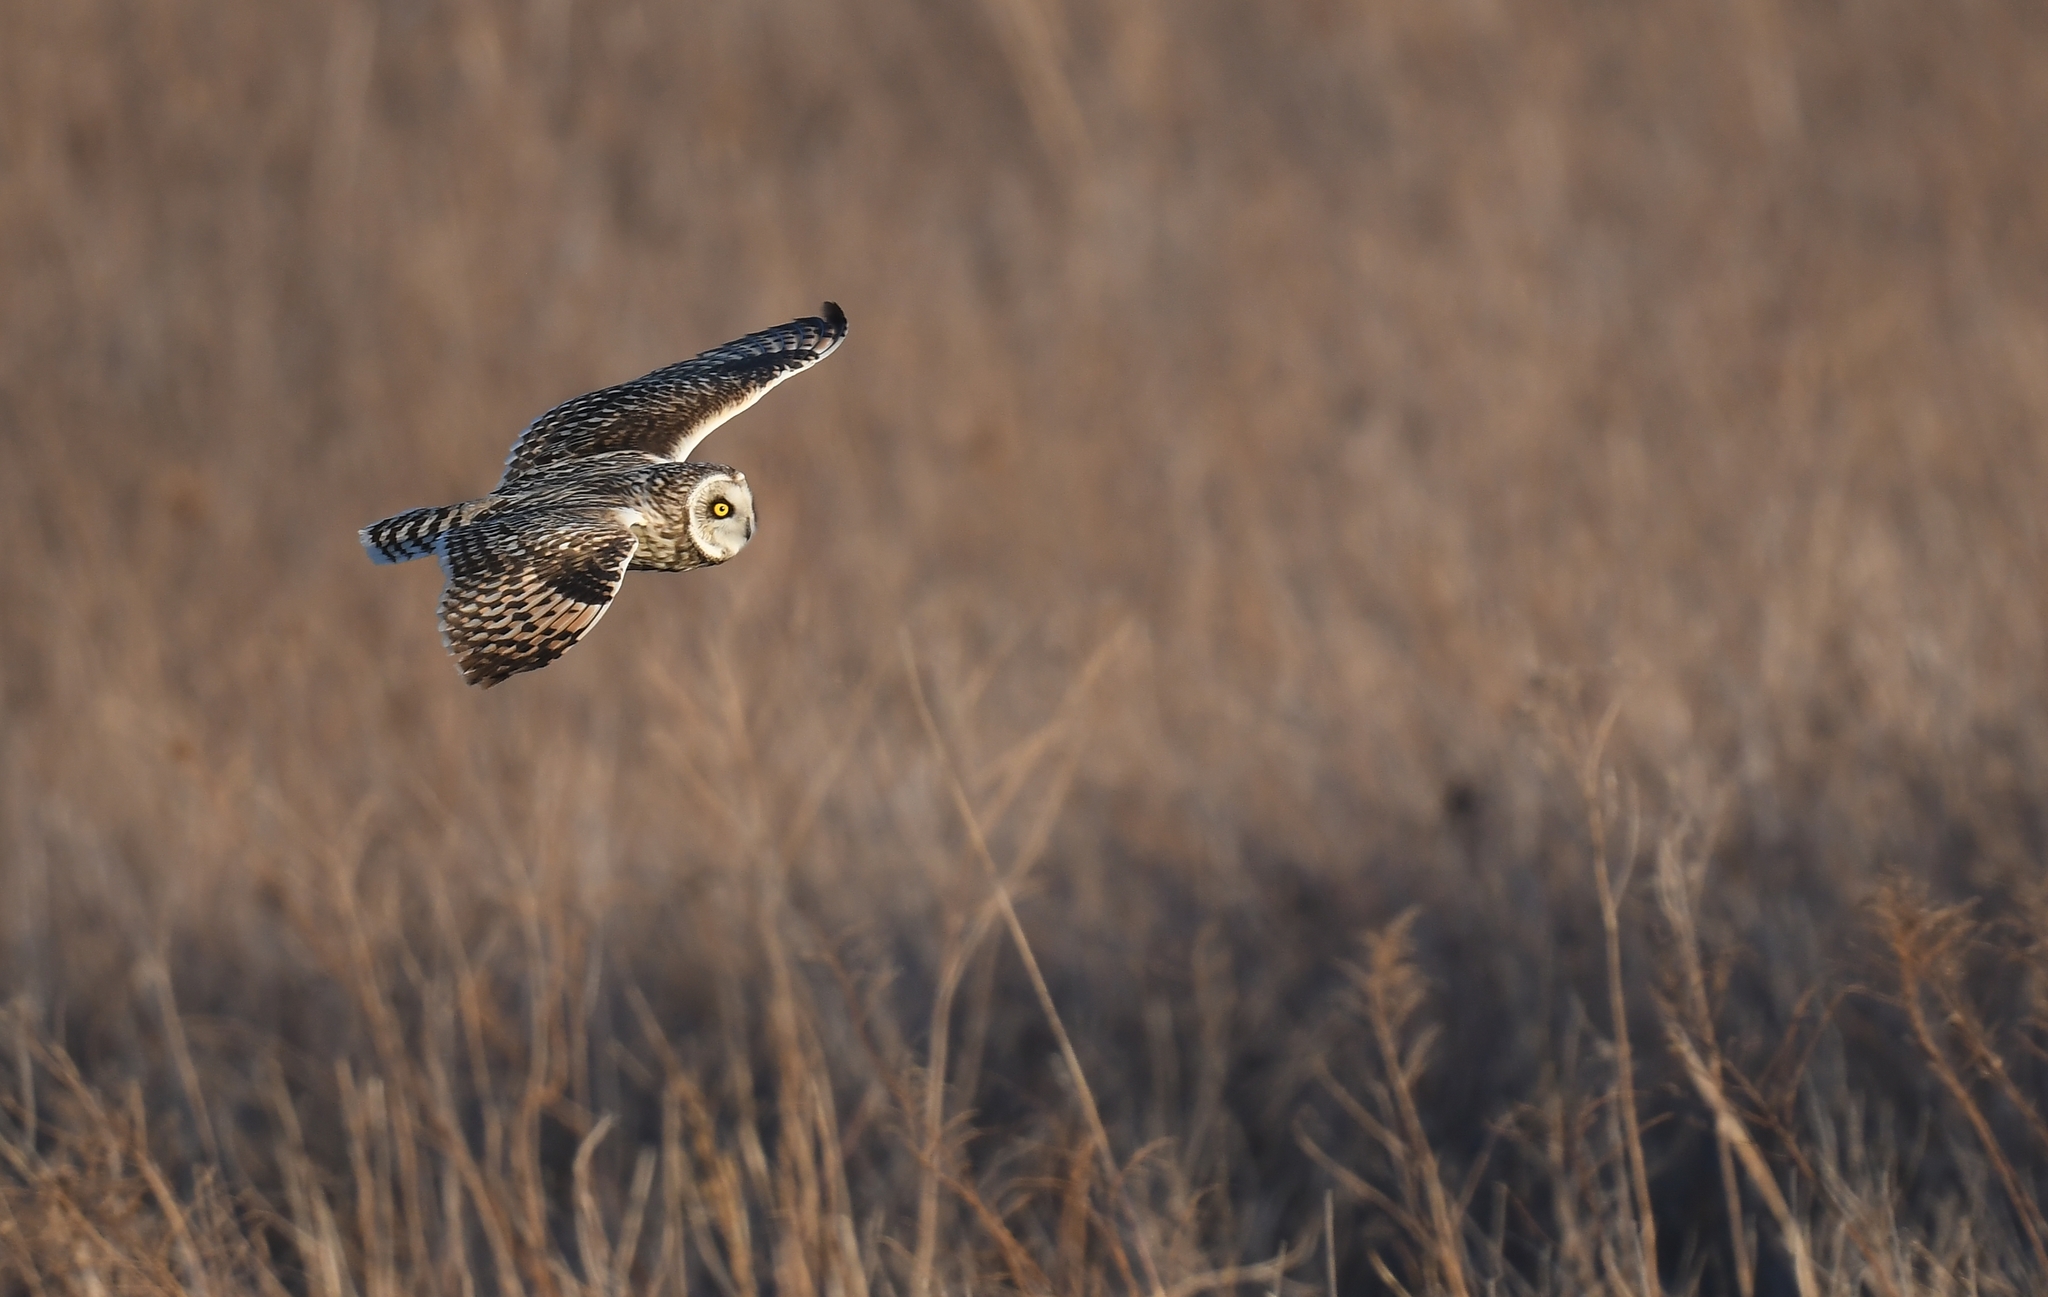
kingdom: Animalia
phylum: Chordata
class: Aves
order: Strigiformes
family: Strigidae
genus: Asio
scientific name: Asio flammeus
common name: Short-eared owl
